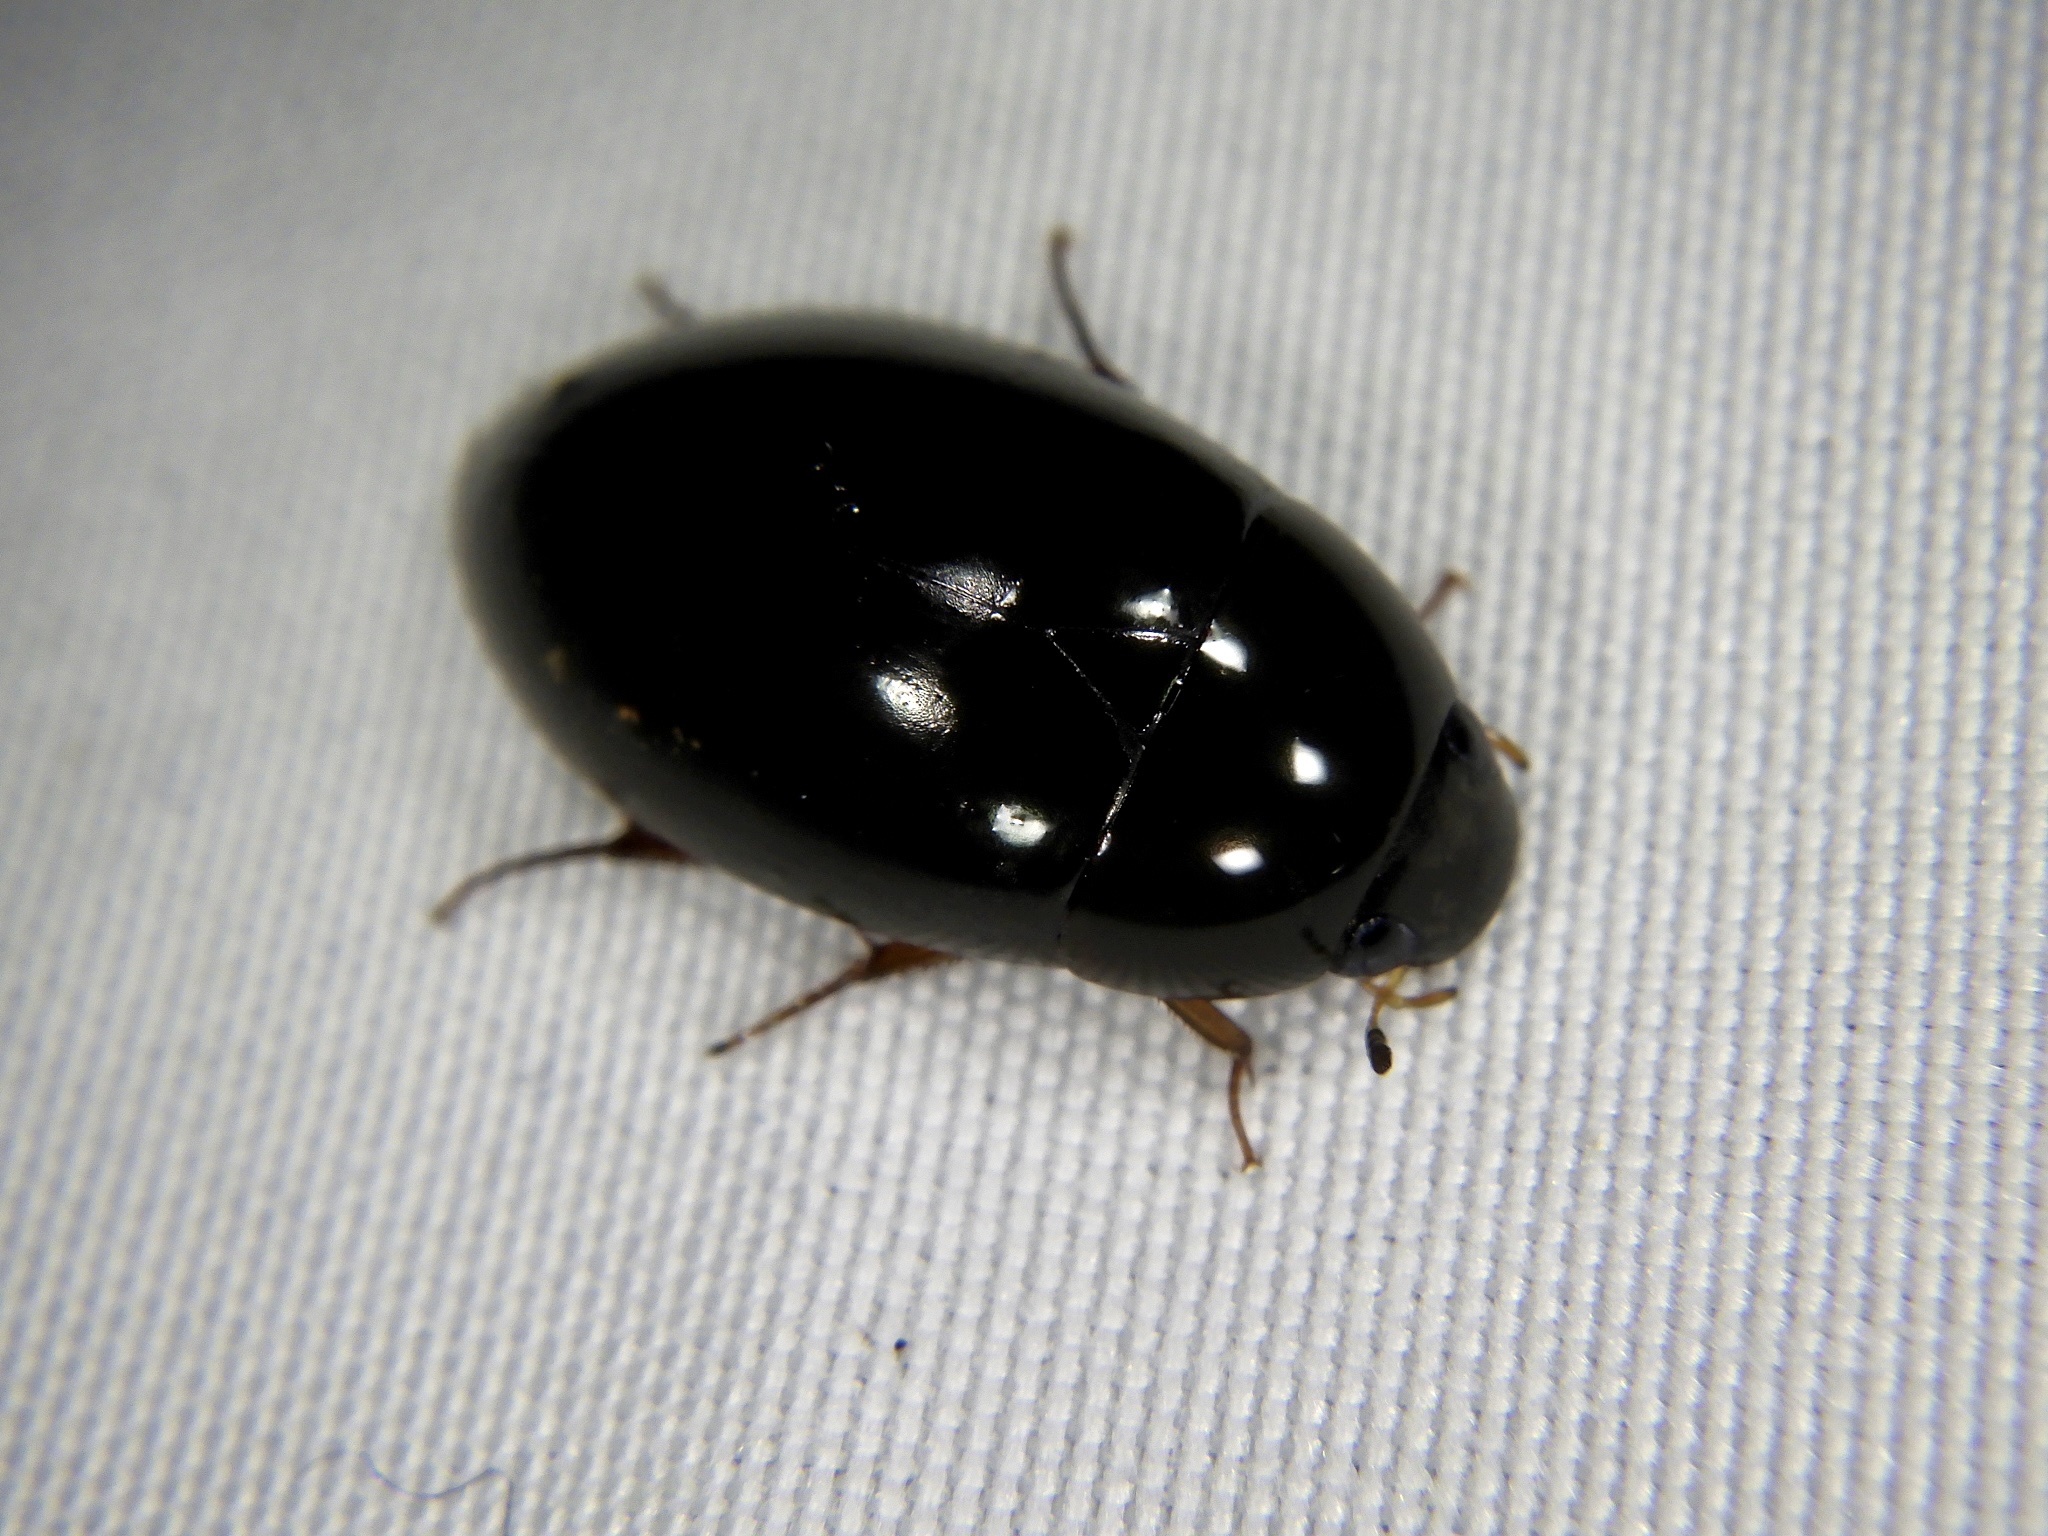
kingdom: Animalia
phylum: Arthropoda
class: Insecta
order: Coleoptera
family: Hydrophilidae
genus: Sternolophus
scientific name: Sternolophus rufipes
